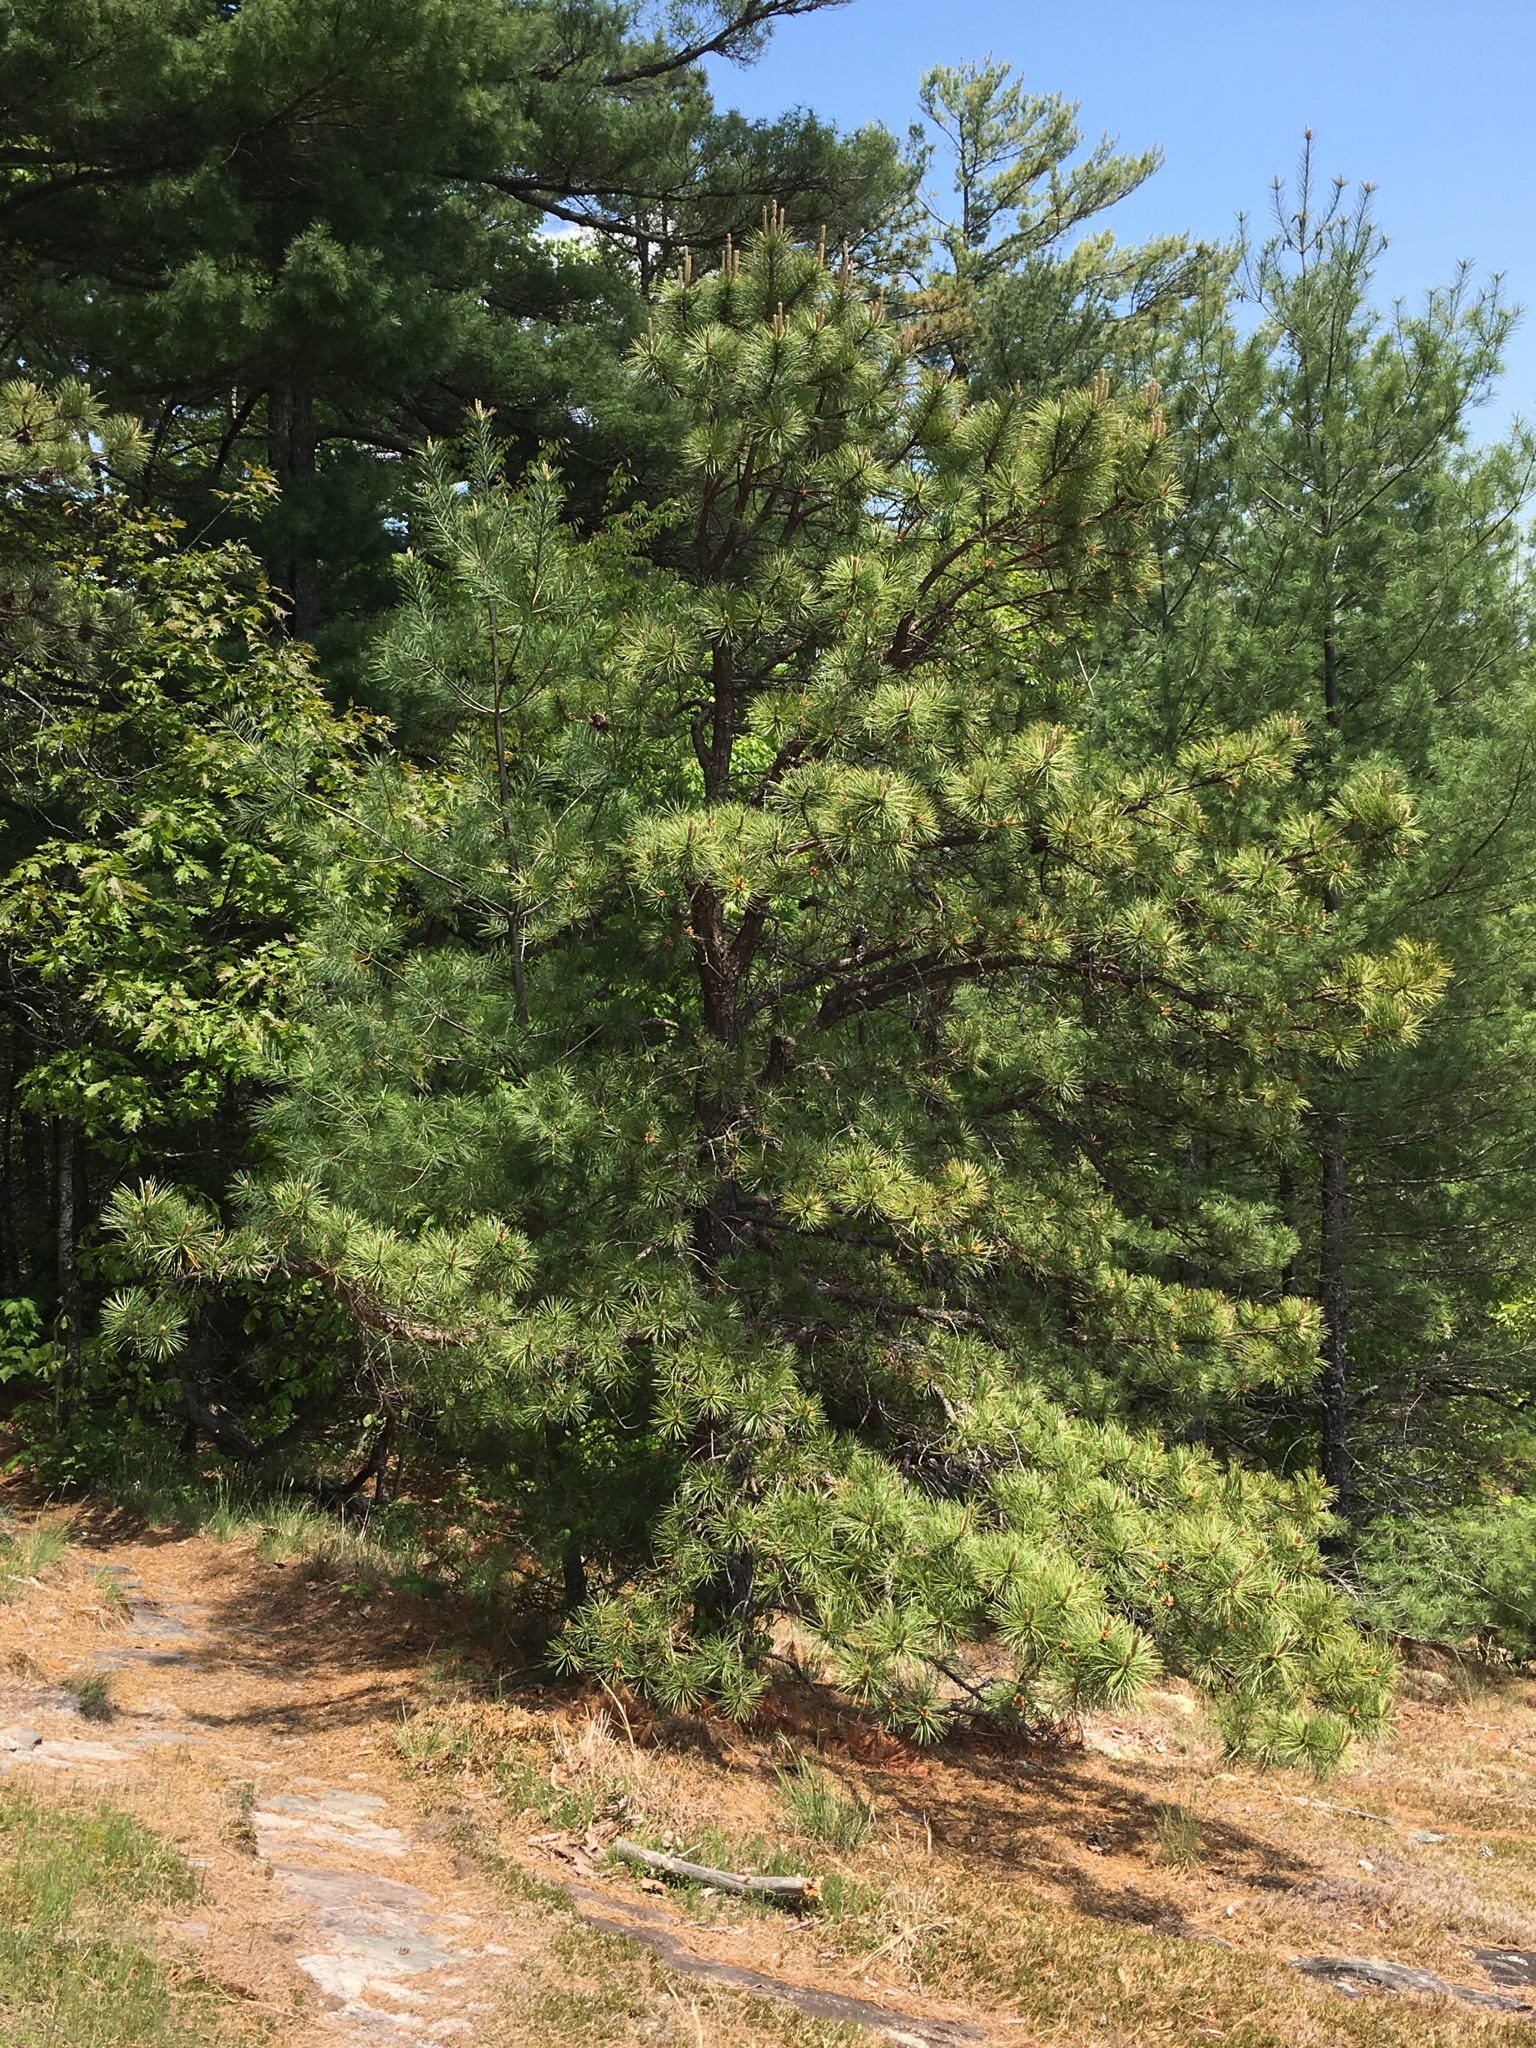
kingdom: Plantae
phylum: Tracheophyta
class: Pinopsida
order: Pinales
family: Pinaceae
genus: Pinus
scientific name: Pinus rigida
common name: Pitch pine
